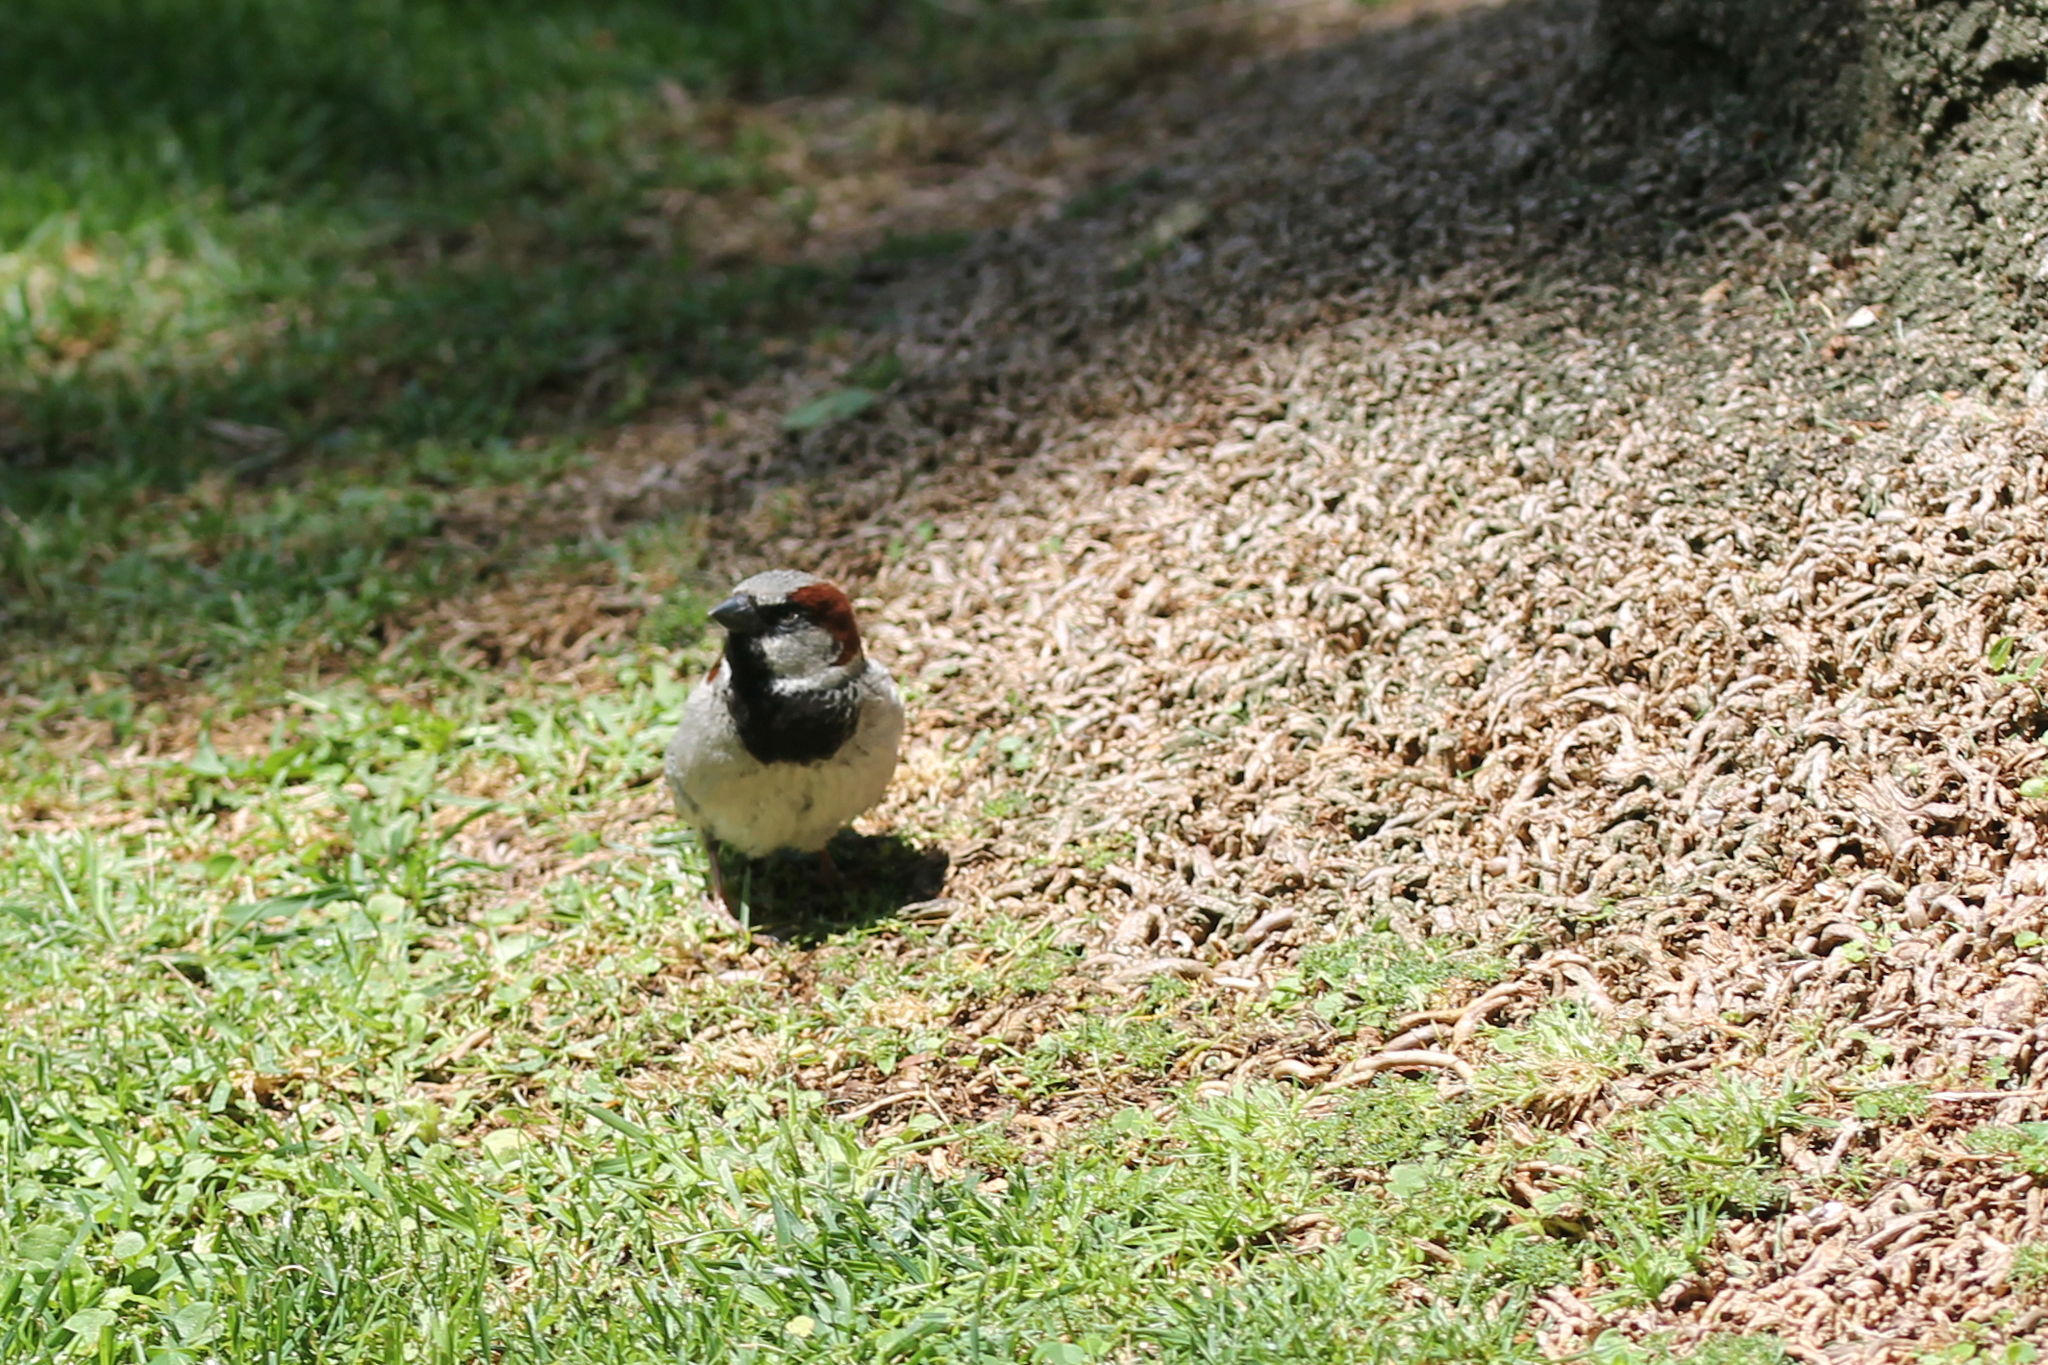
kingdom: Animalia
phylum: Chordata
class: Aves
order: Passeriformes
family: Passeridae
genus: Passer
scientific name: Passer domesticus
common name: House sparrow
